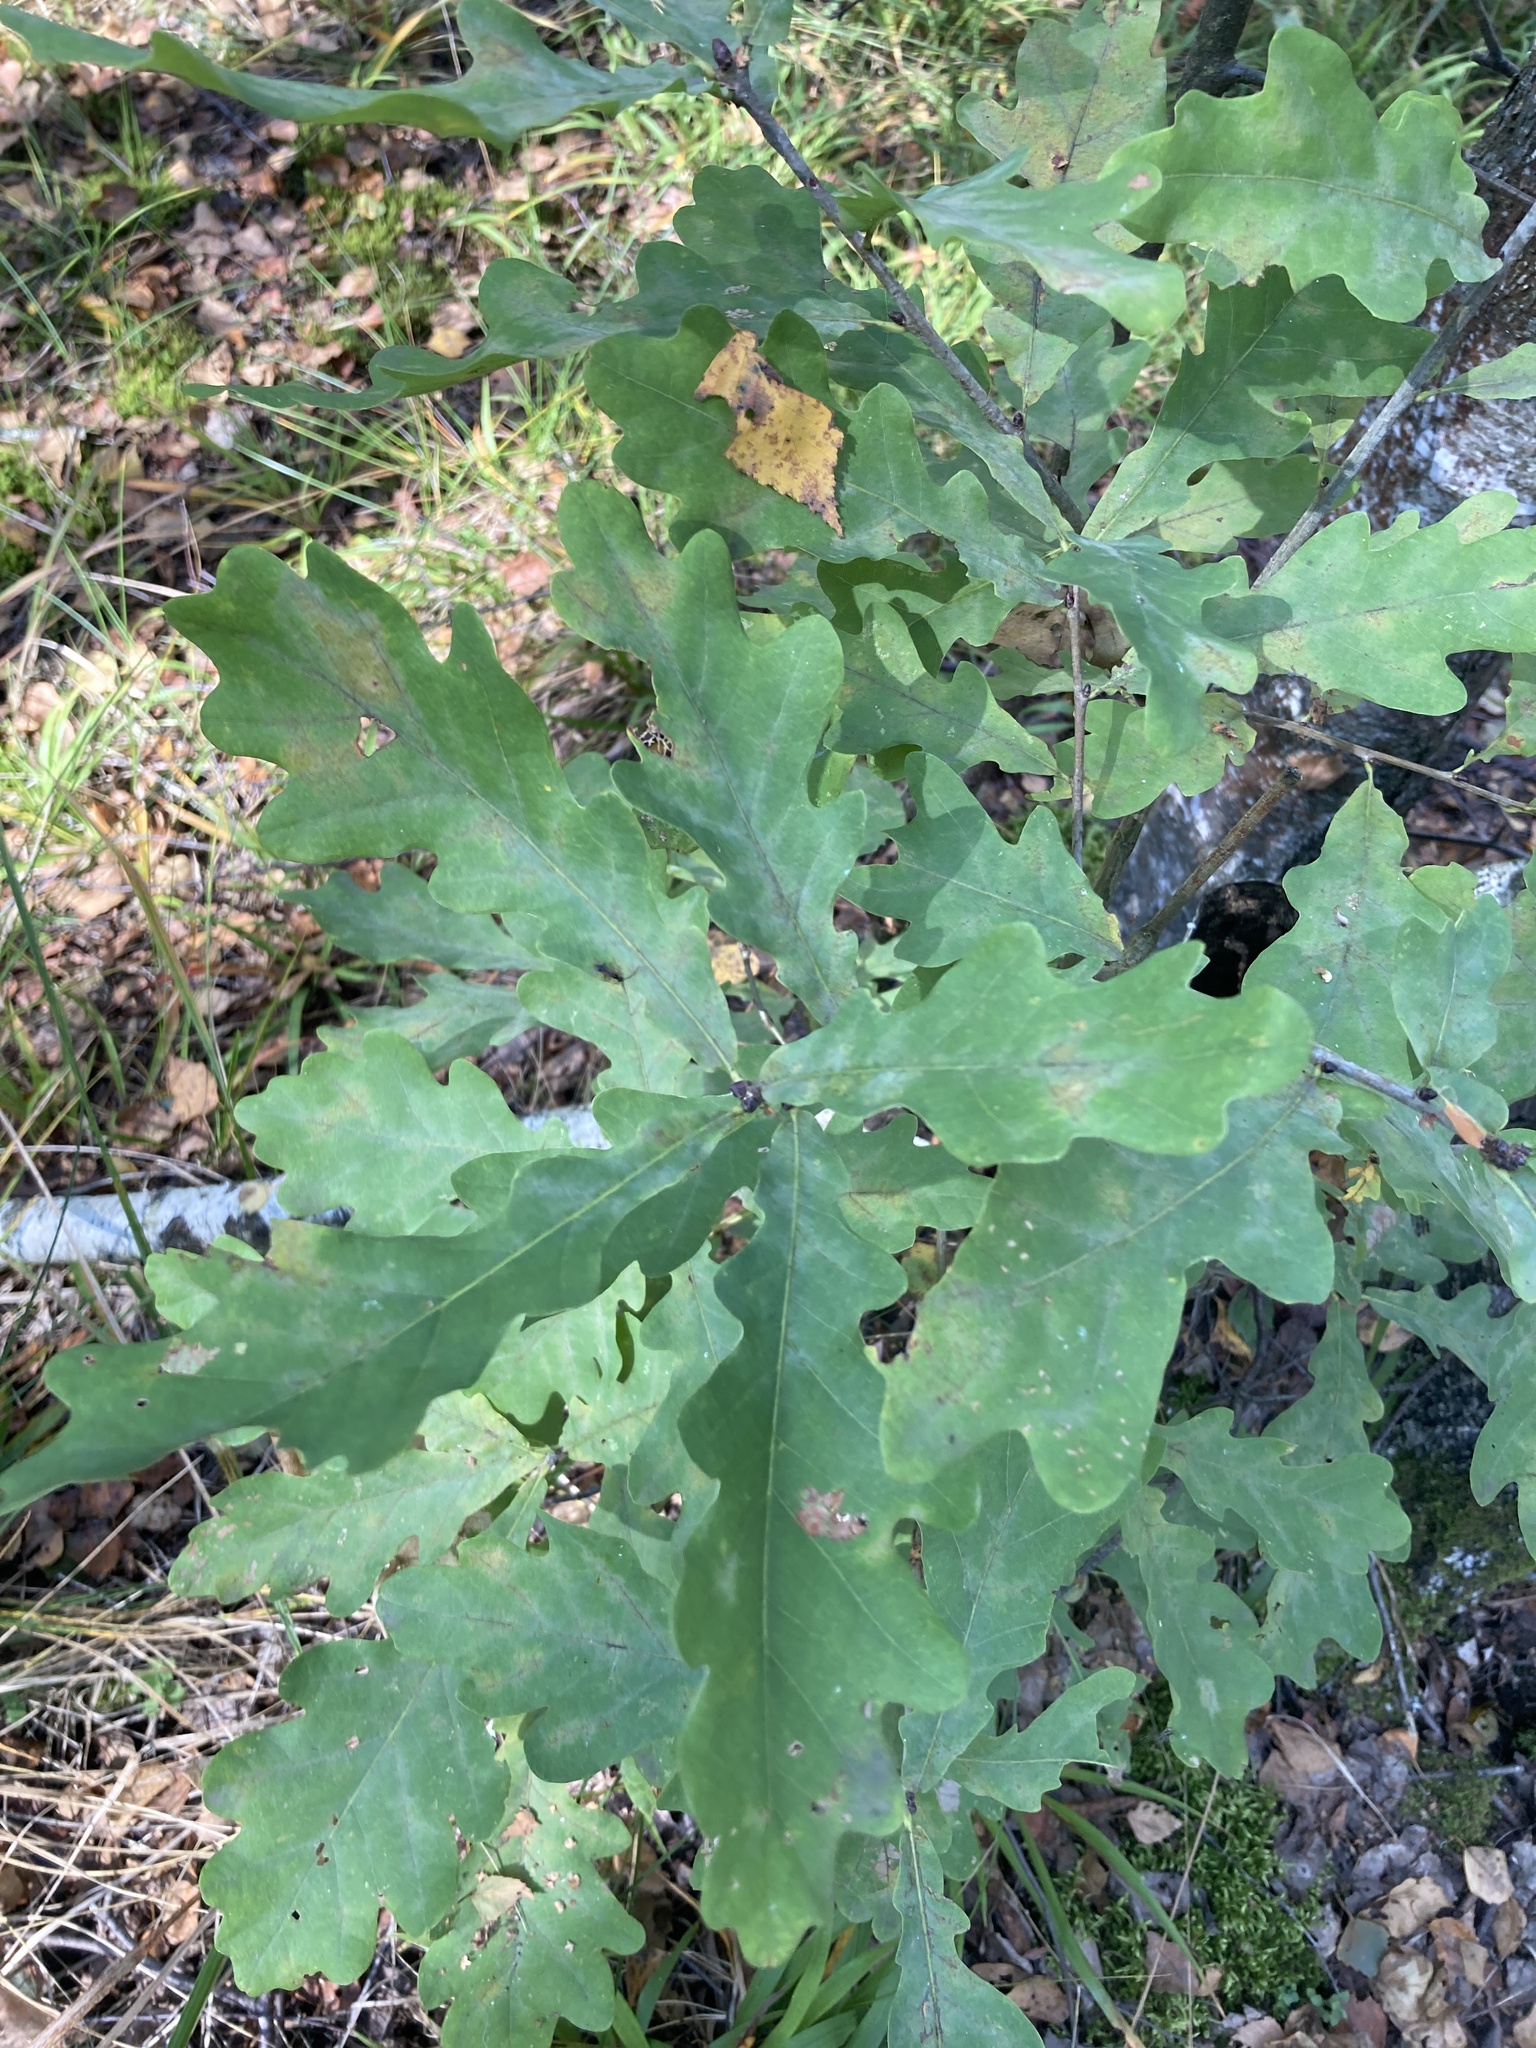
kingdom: Plantae
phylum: Tracheophyta
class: Magnoliopsida
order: Fagales
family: Fagaceae
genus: Quercus
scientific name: Quercus robur
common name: Pedunculate oak
